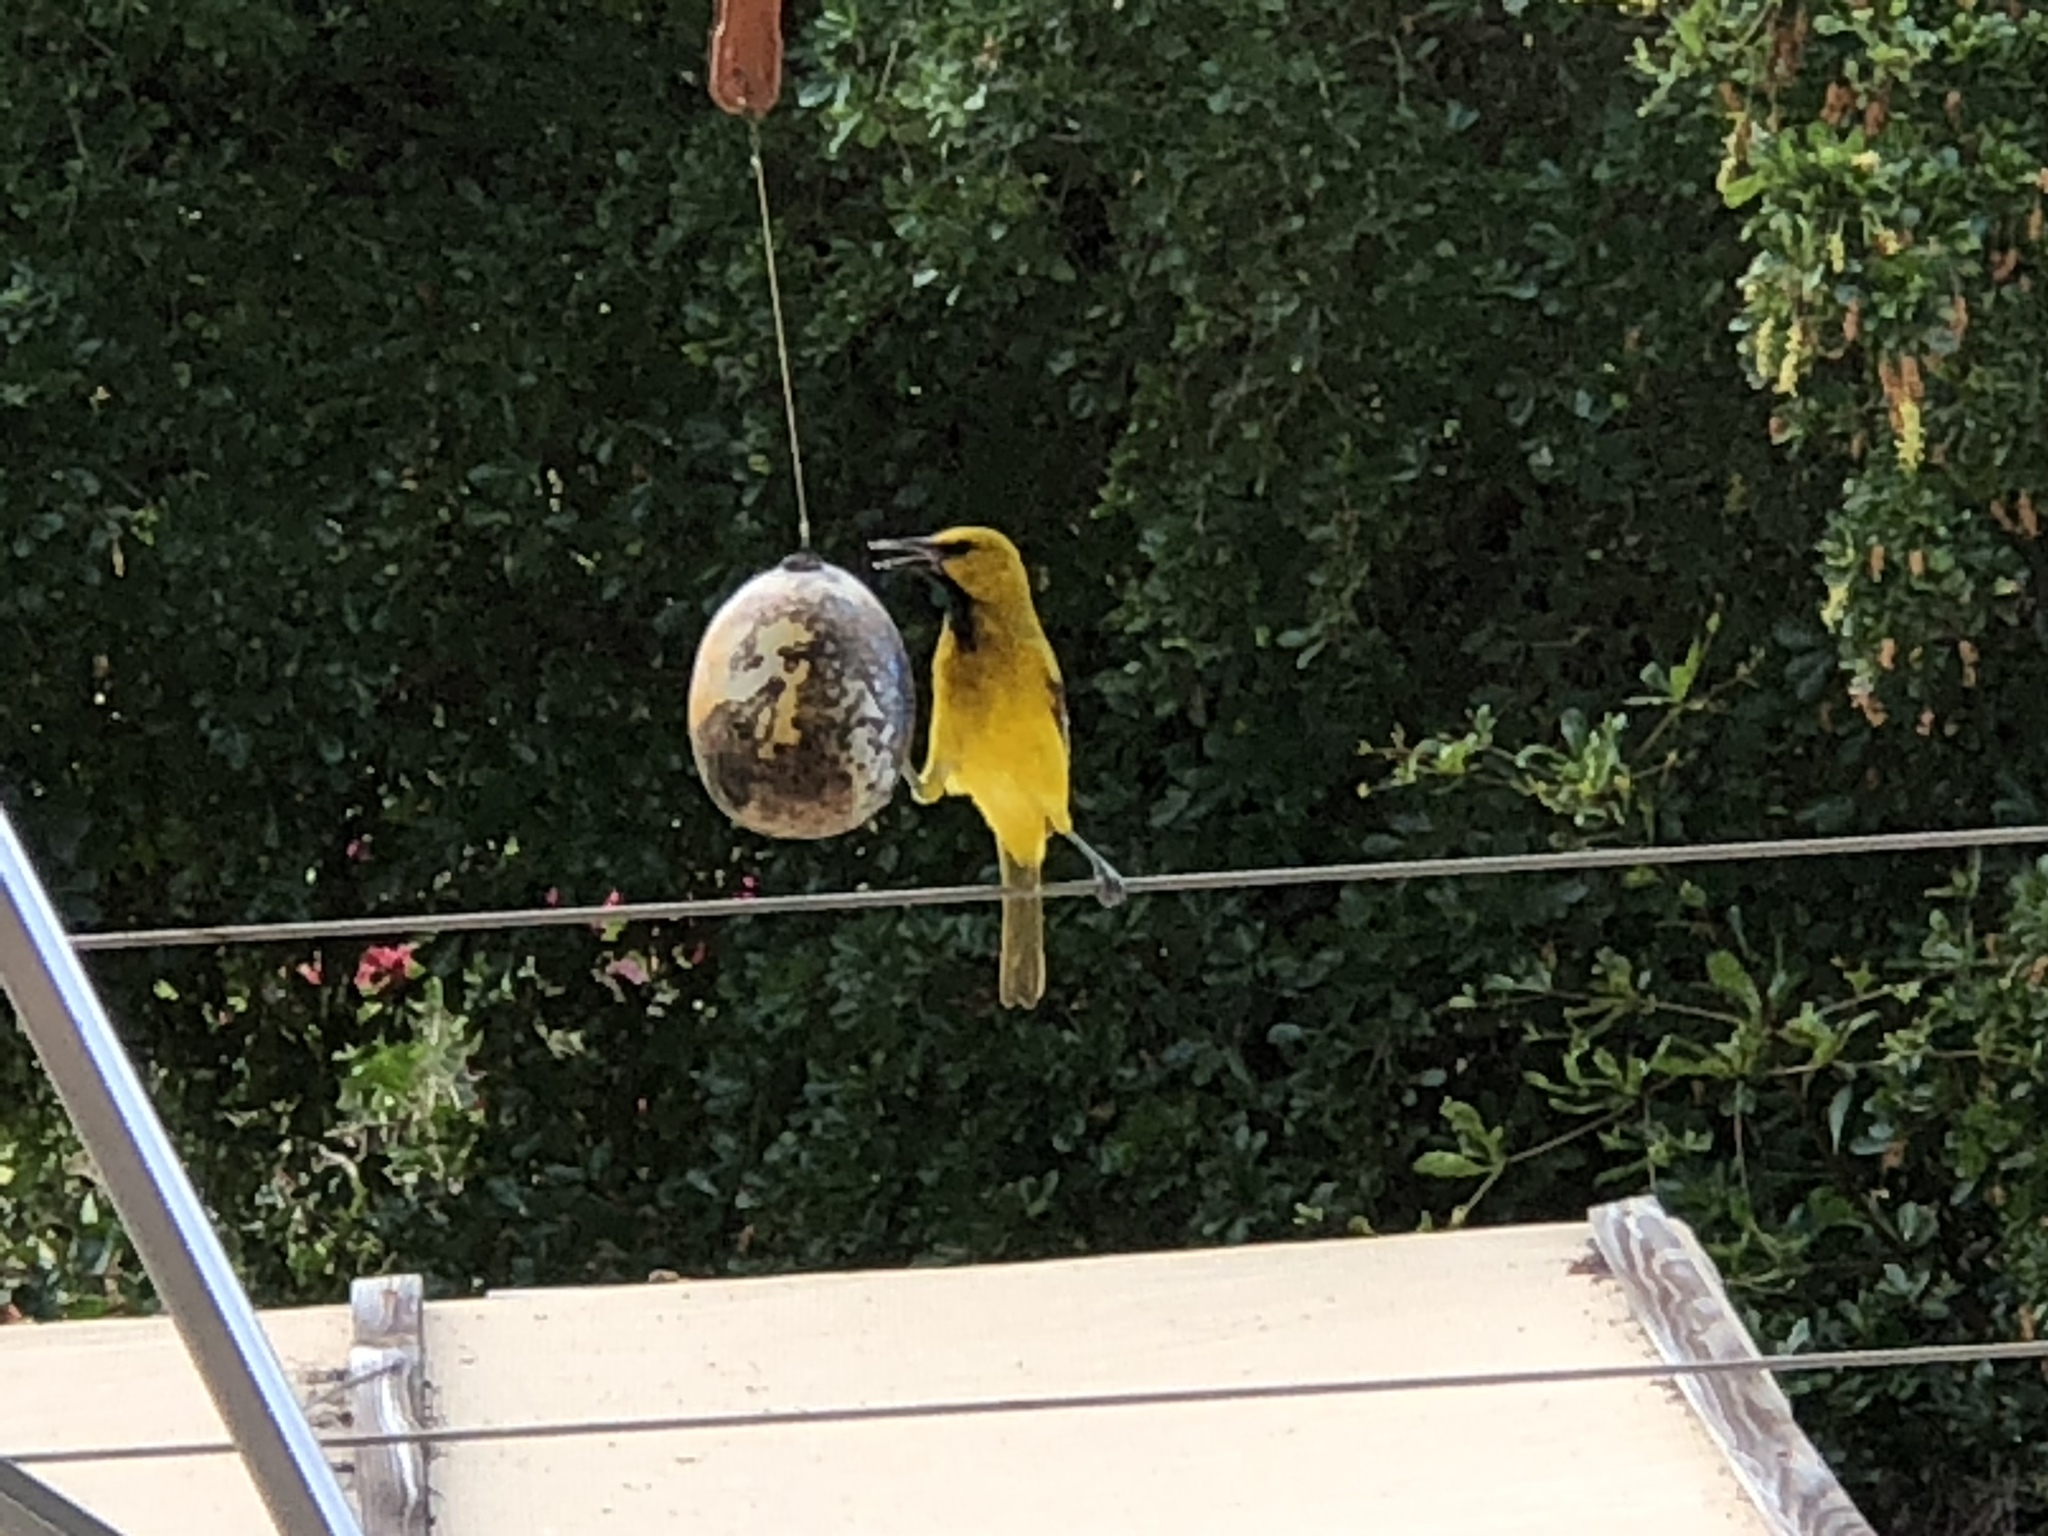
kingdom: Animalia
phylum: Chordata
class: Aves
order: Passeriformes
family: Icteridae
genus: Icterus
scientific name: Icterus nigrogularis
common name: Yellow oriole
